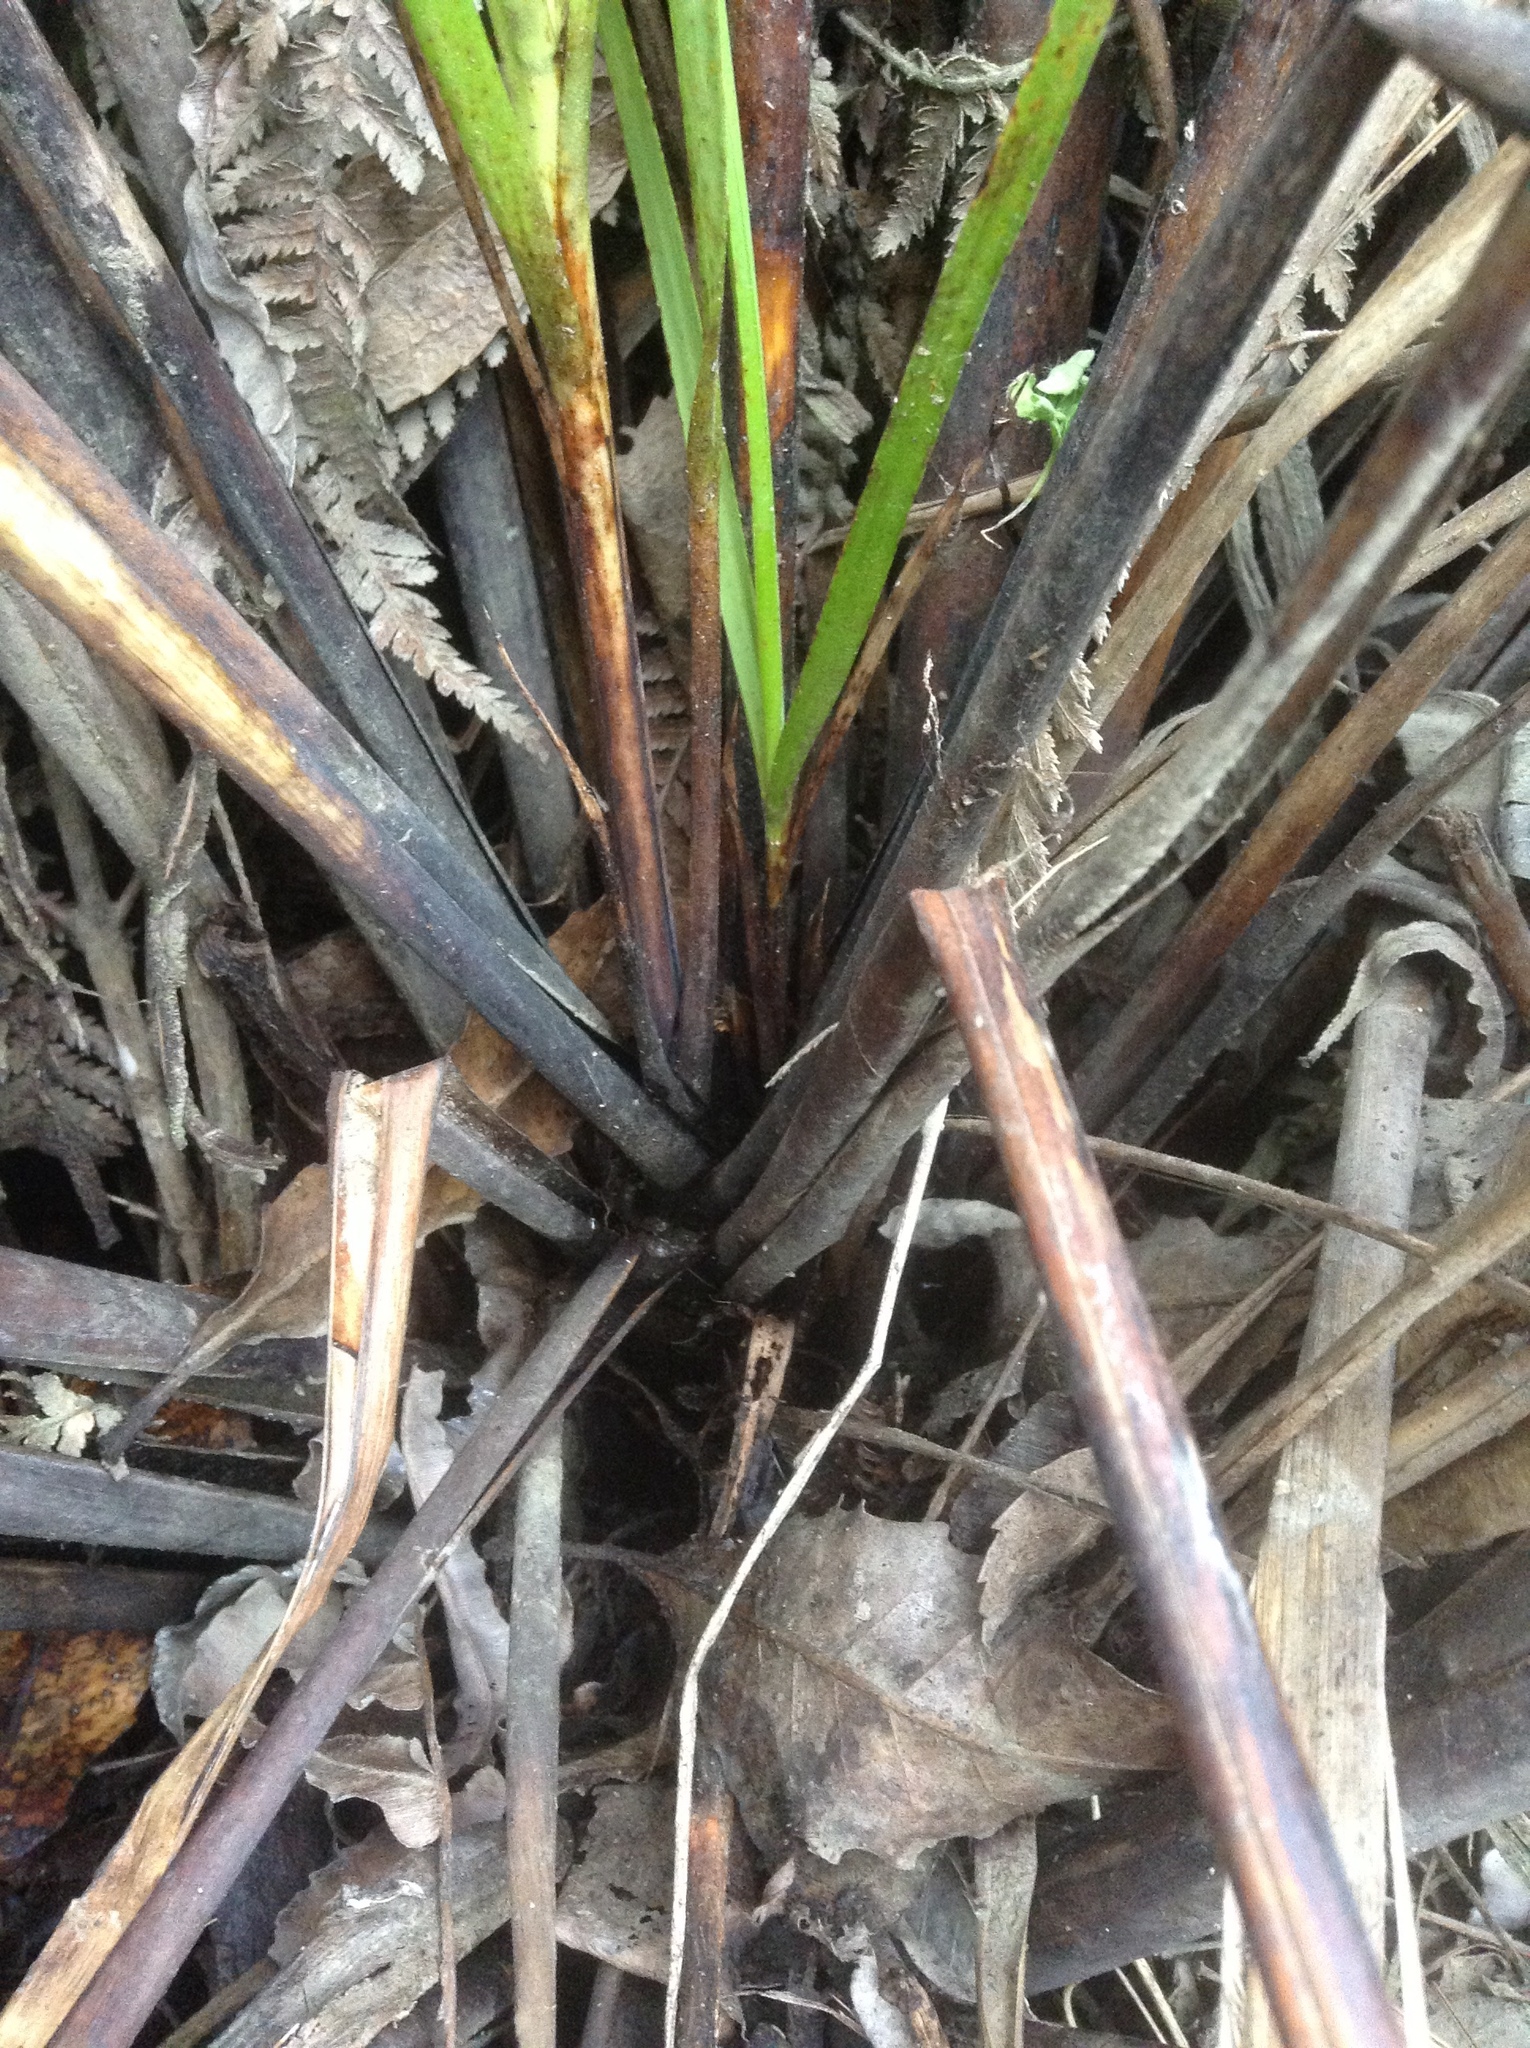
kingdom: Plantae
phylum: Tracheophyta
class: Liliopsida
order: Poales
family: Cyperaceae
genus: Gahnia
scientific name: Gahnia setifolia
